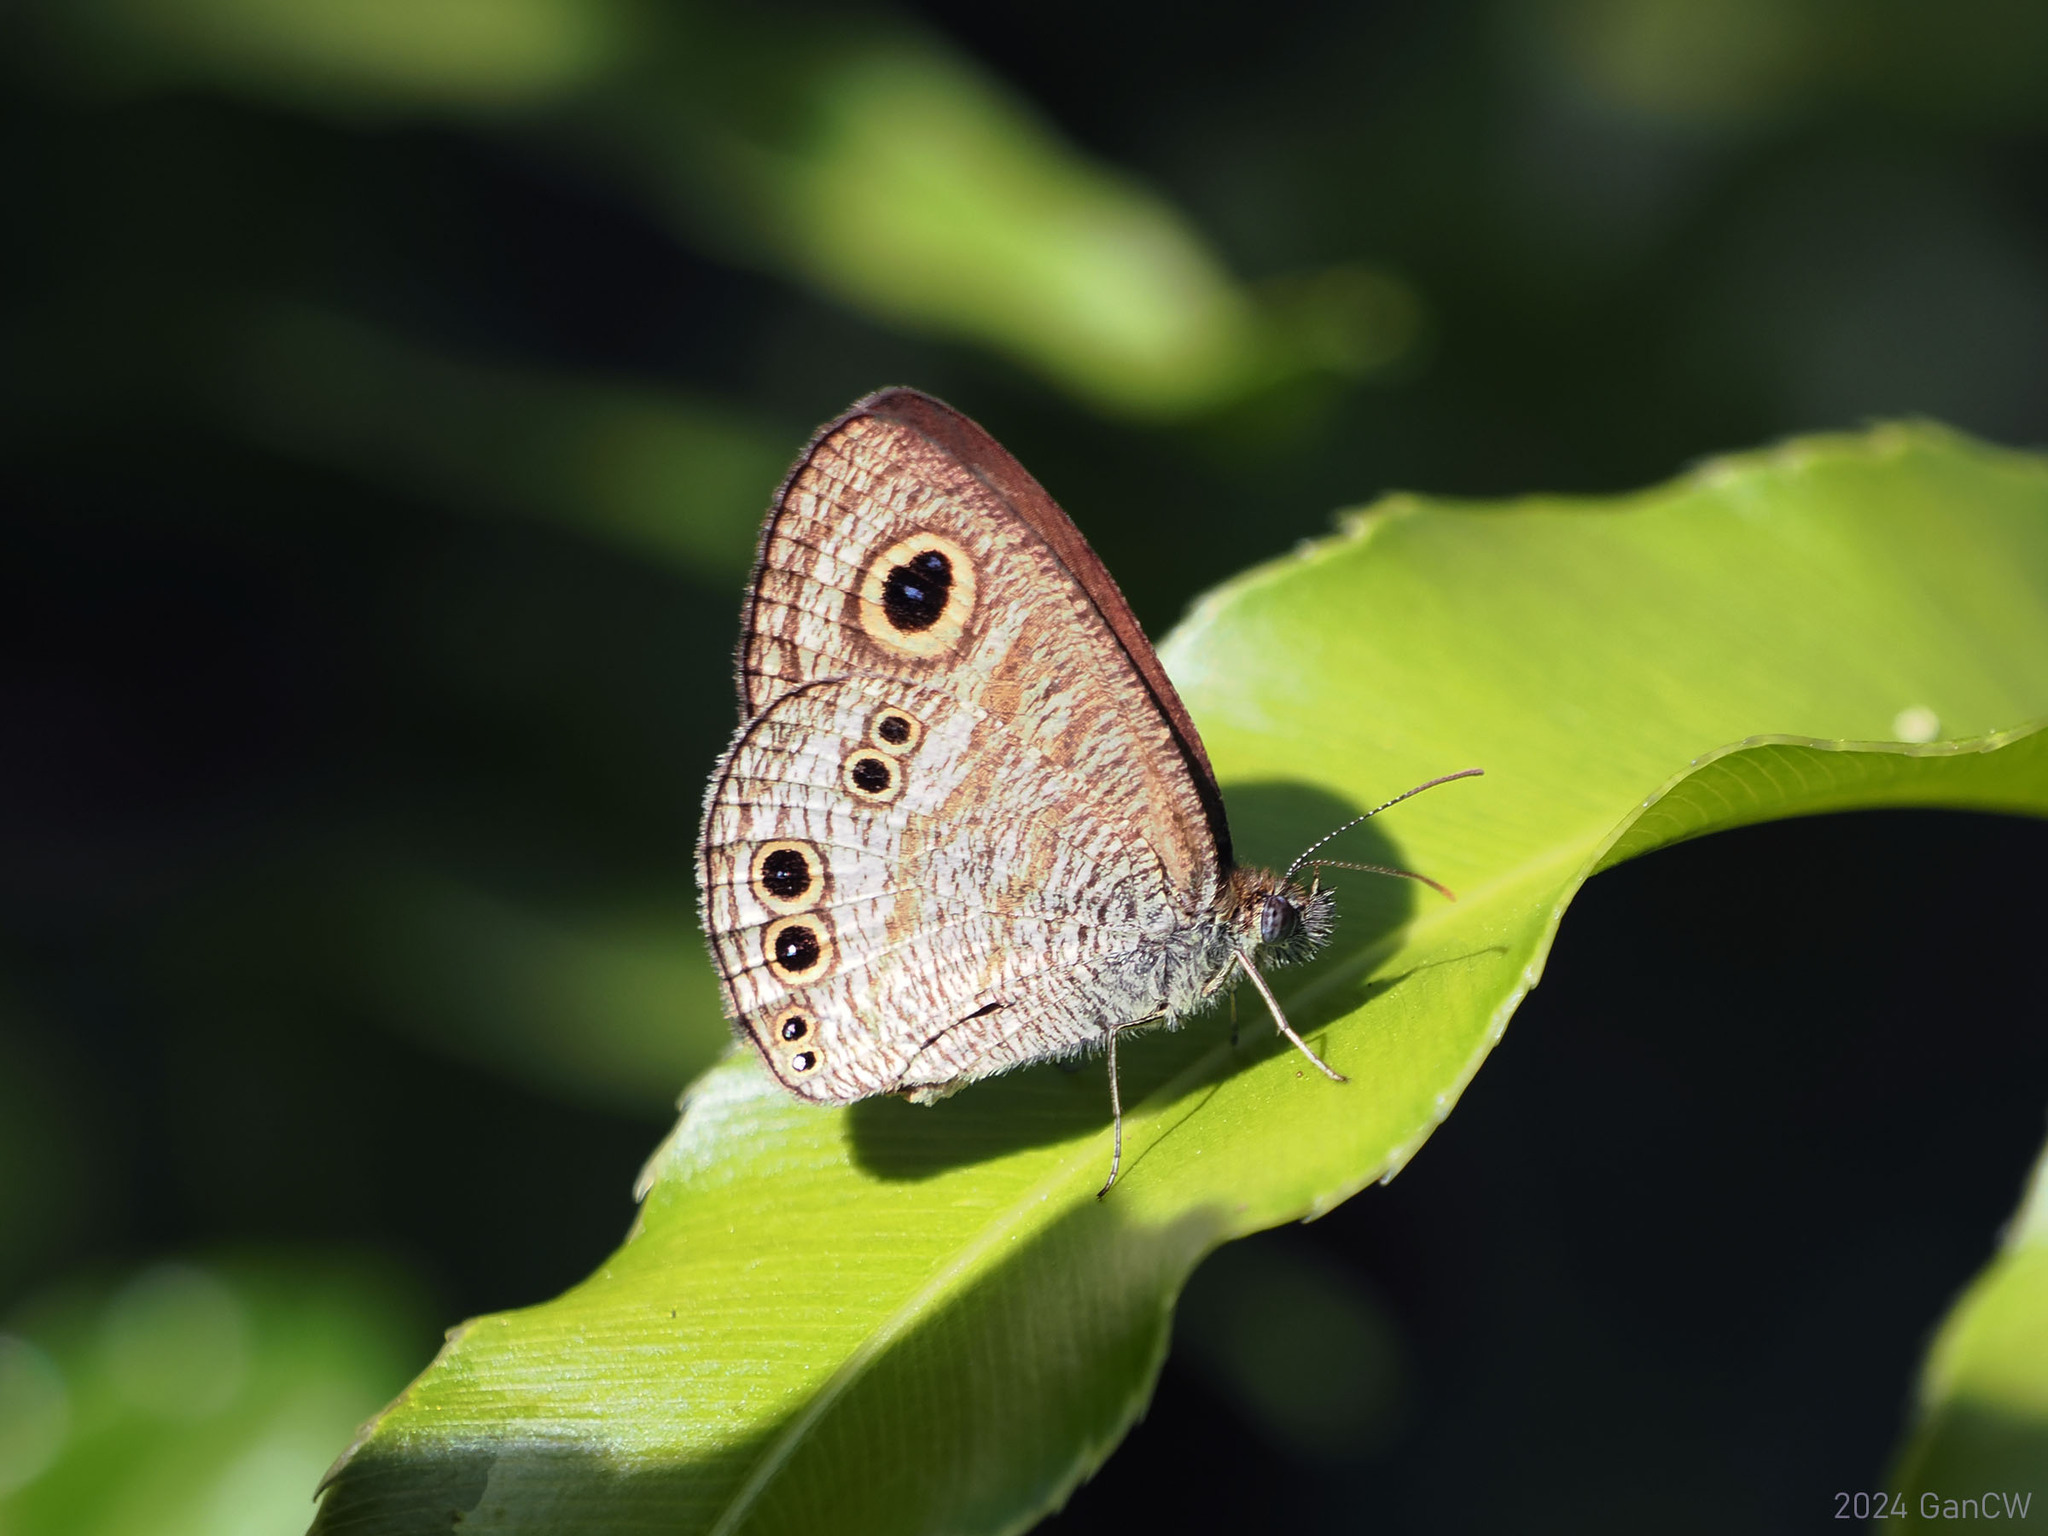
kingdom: Animalia
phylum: Arthropoda
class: Insecta
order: Lepidoptera
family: Nymphalidae
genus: Ypthima
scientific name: Ypthima stellera
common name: Philippine five-ring
